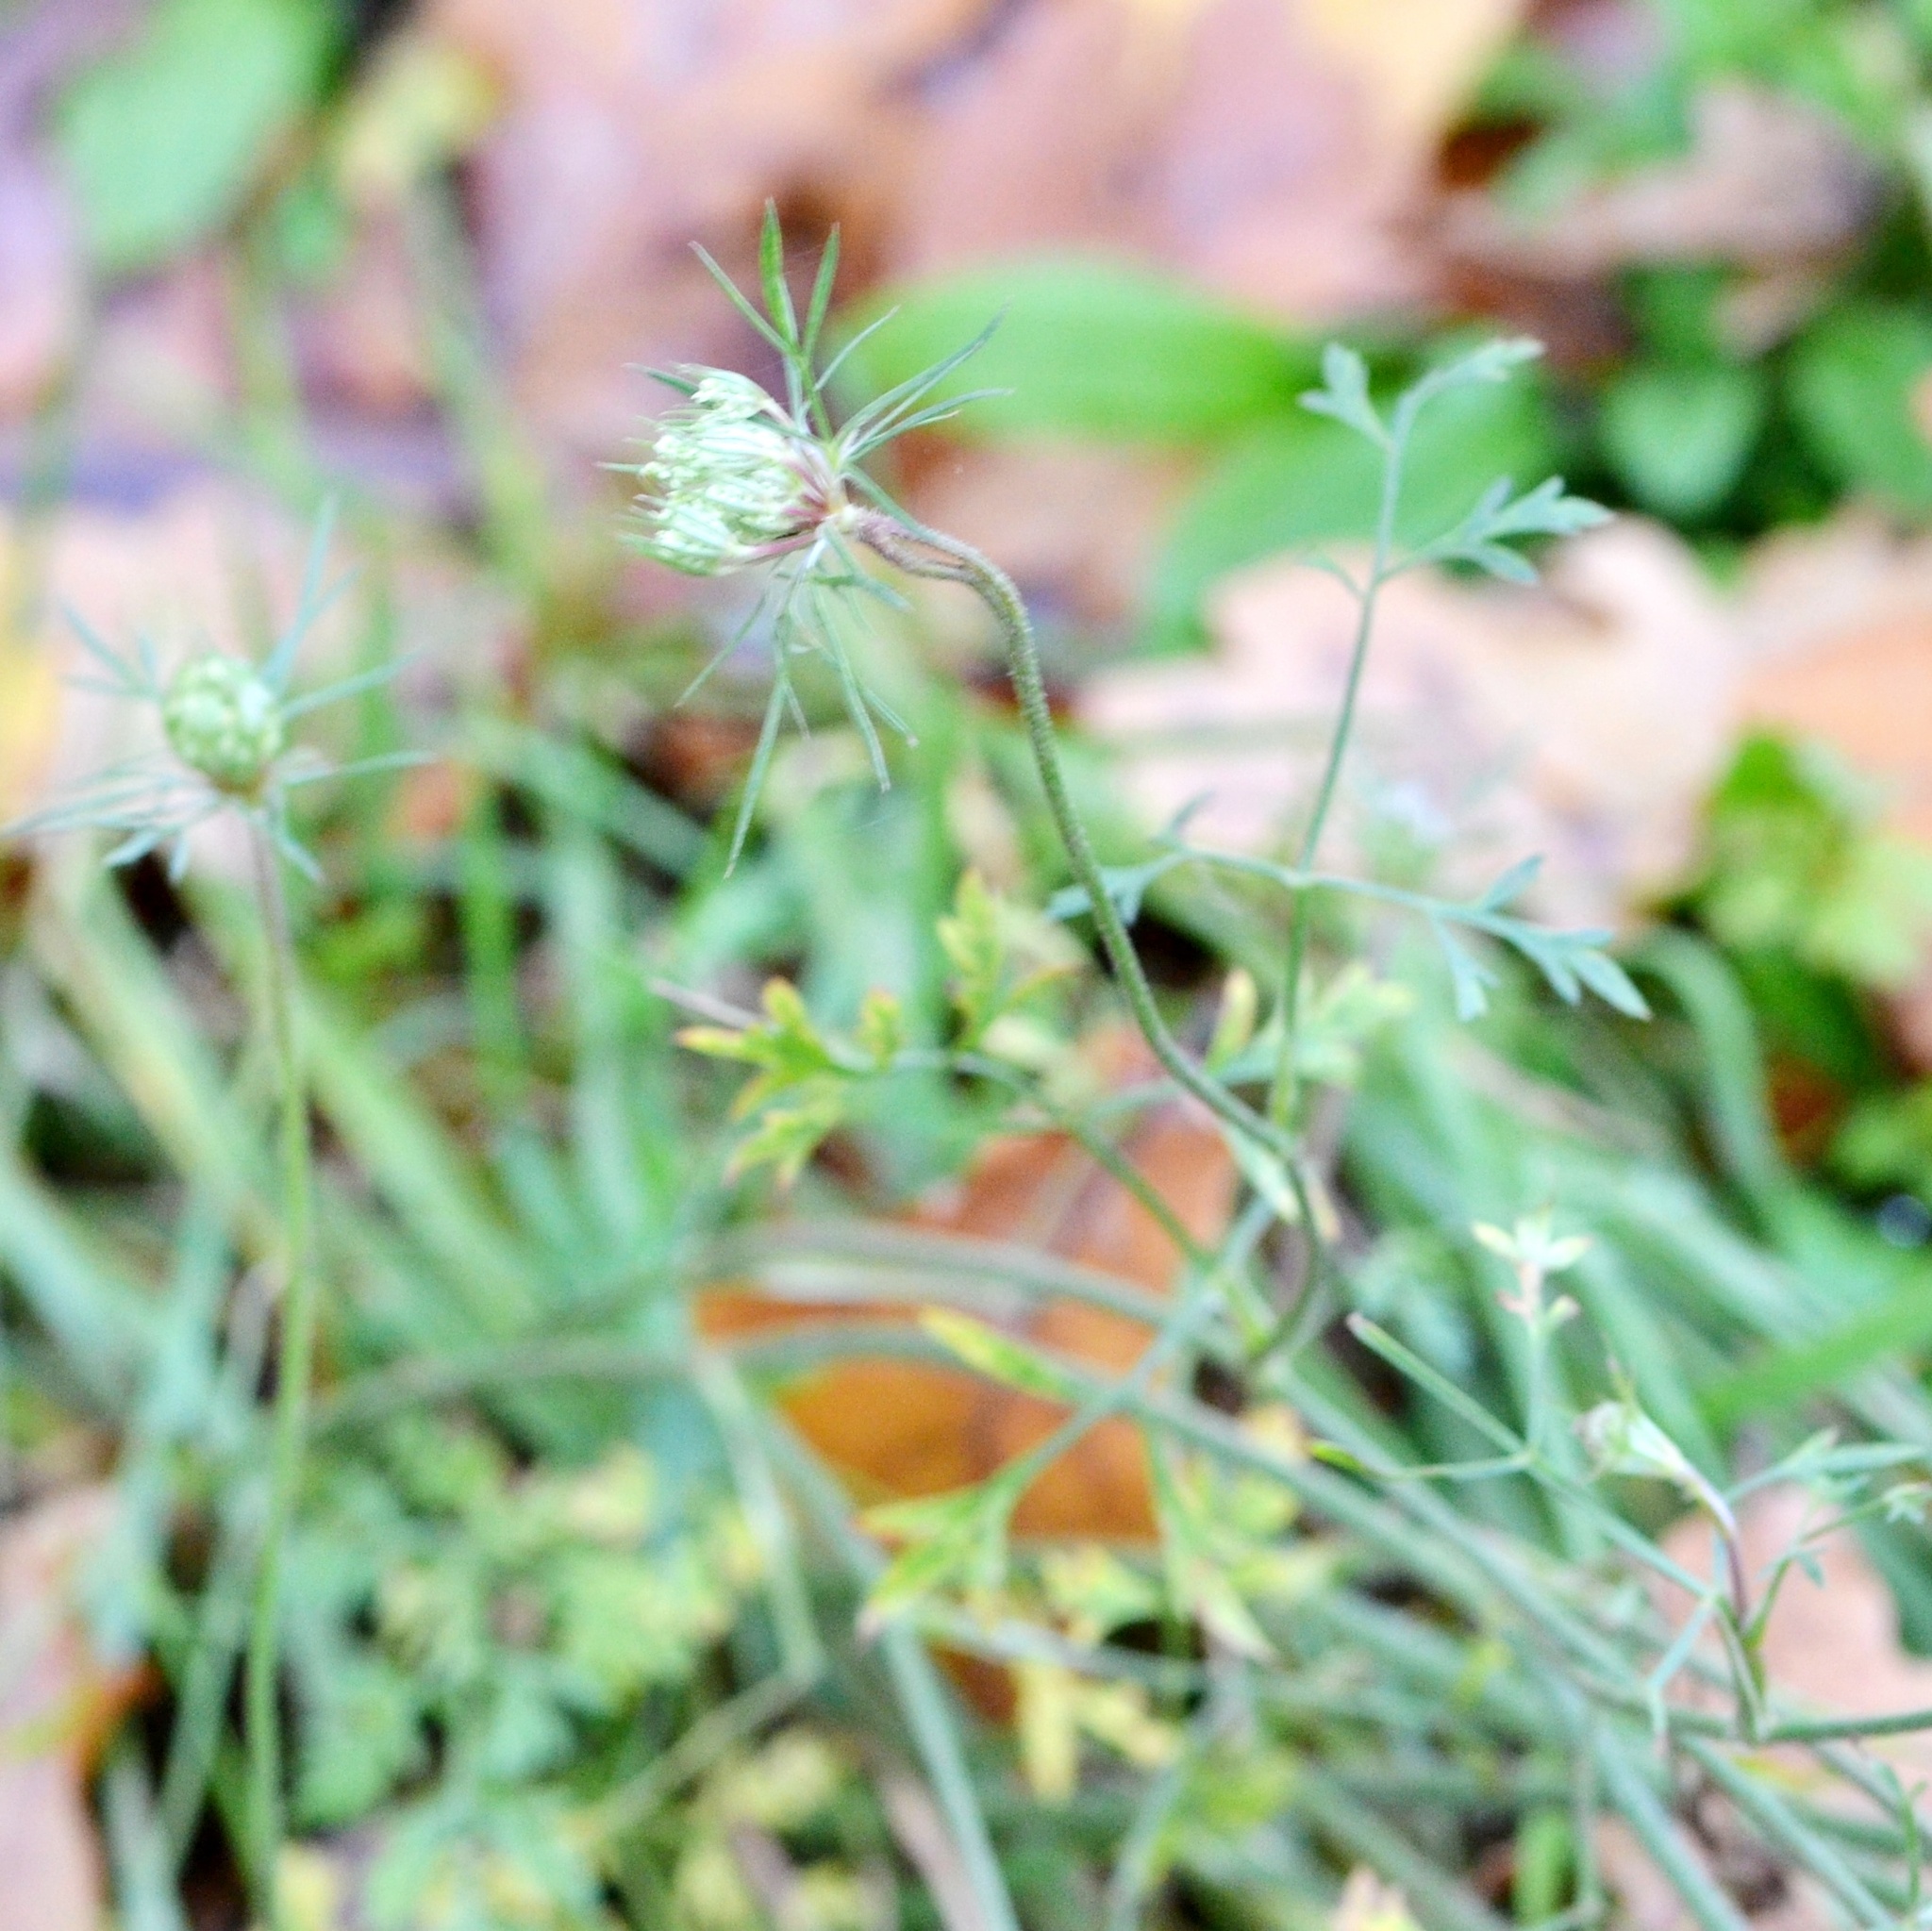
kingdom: Plantae
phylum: Tracheophyta
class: Magnoliopsida
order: Apiales
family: Apiaceae
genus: Daucus
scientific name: Daucus carota
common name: Wild carrot
